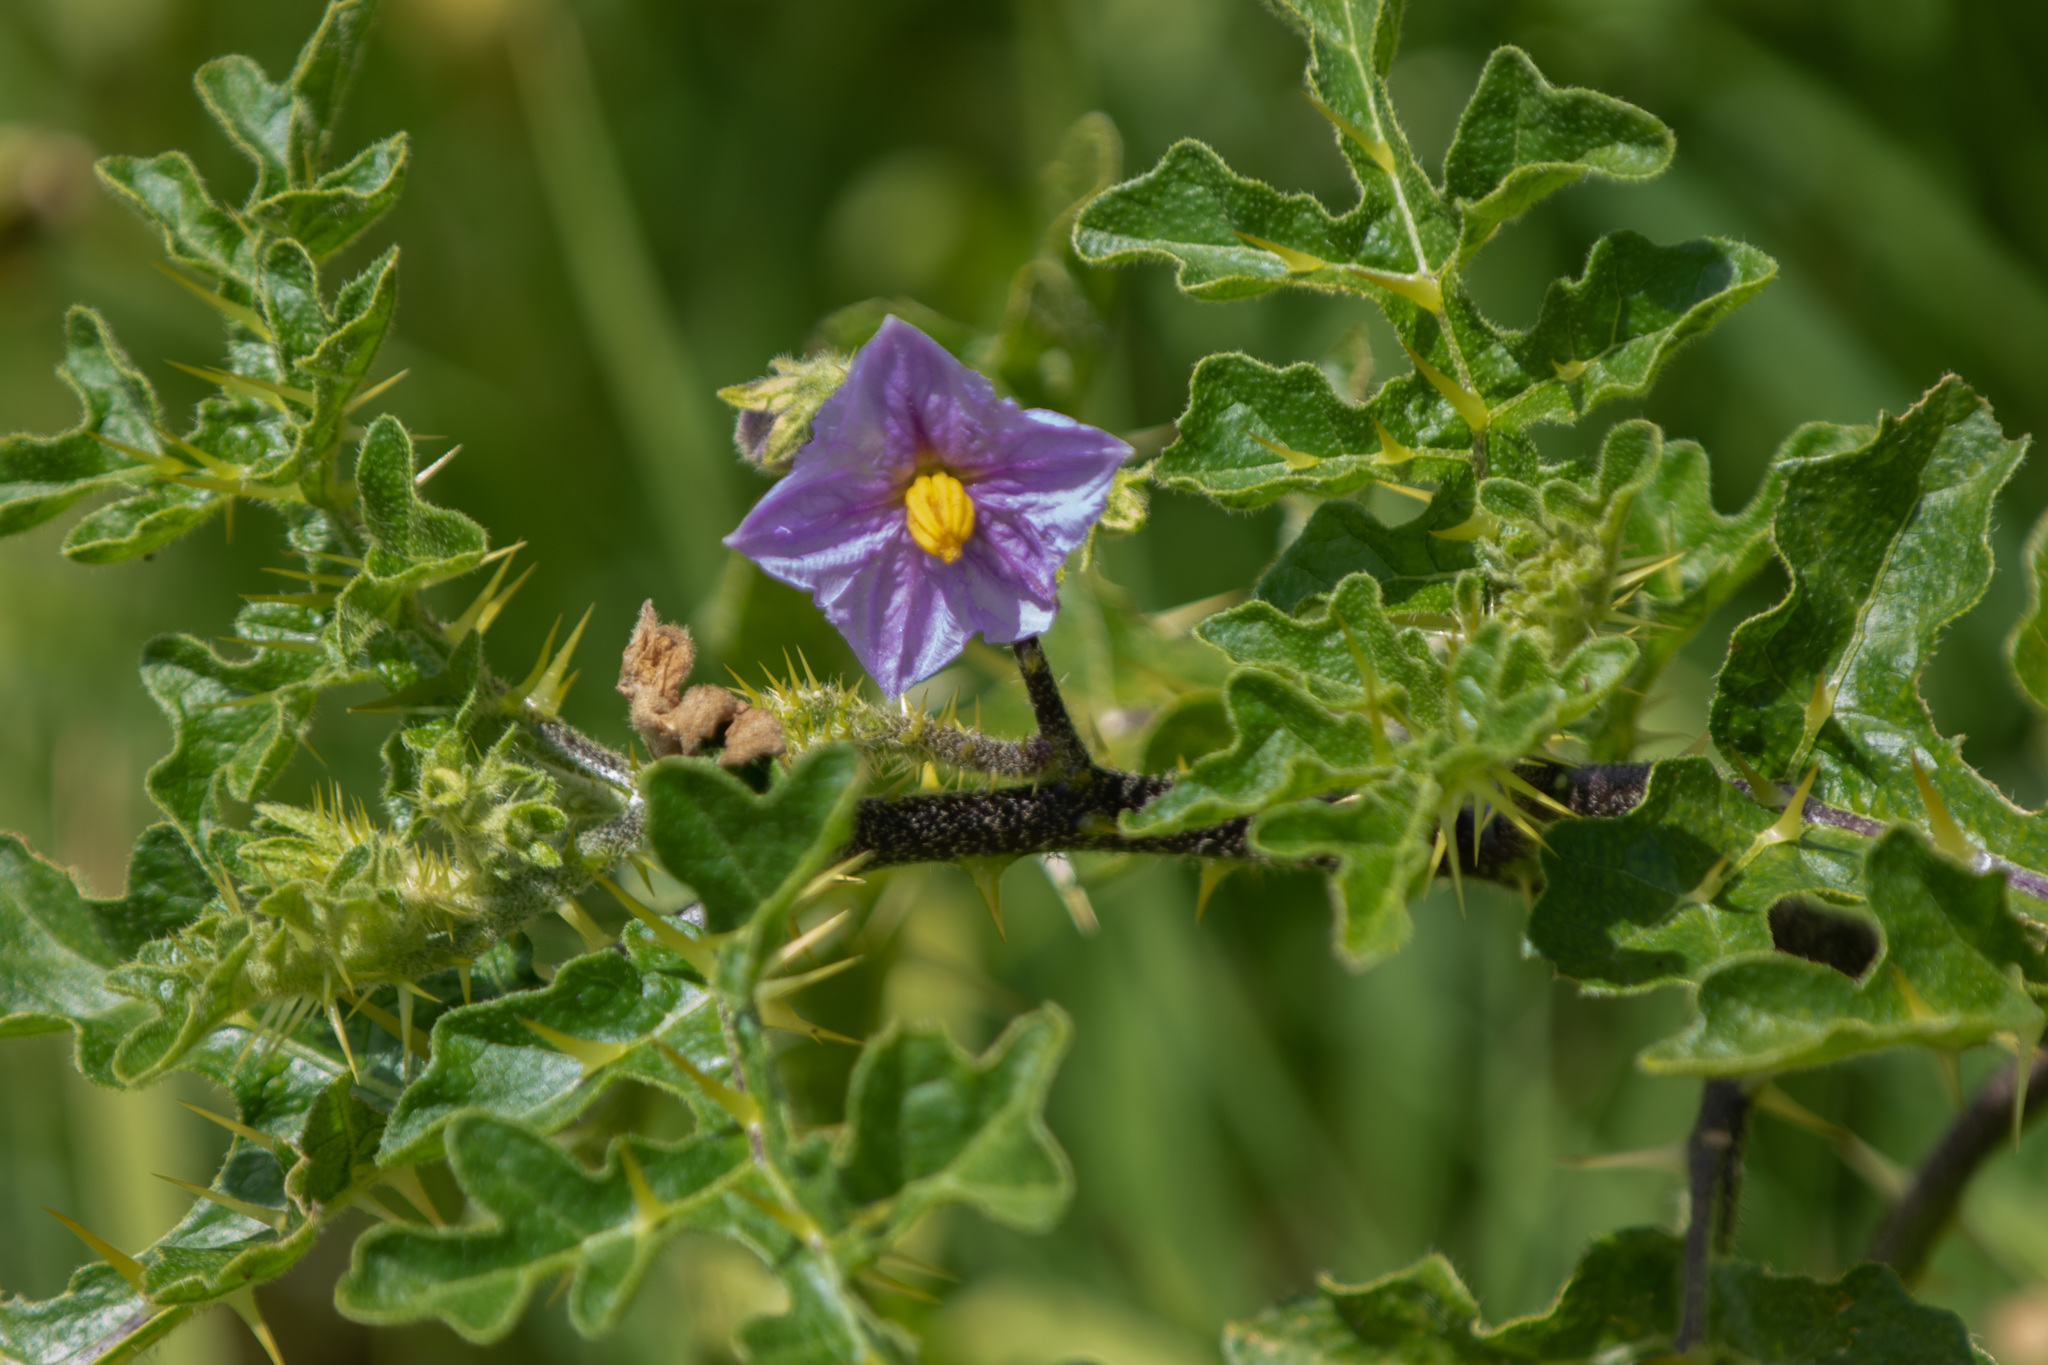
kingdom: Plantae
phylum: Tracheophyta
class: Magnoliopsida
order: Solanales
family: Solanaceae
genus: Solanum
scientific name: Solanum linnaeanum
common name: Nightshade
